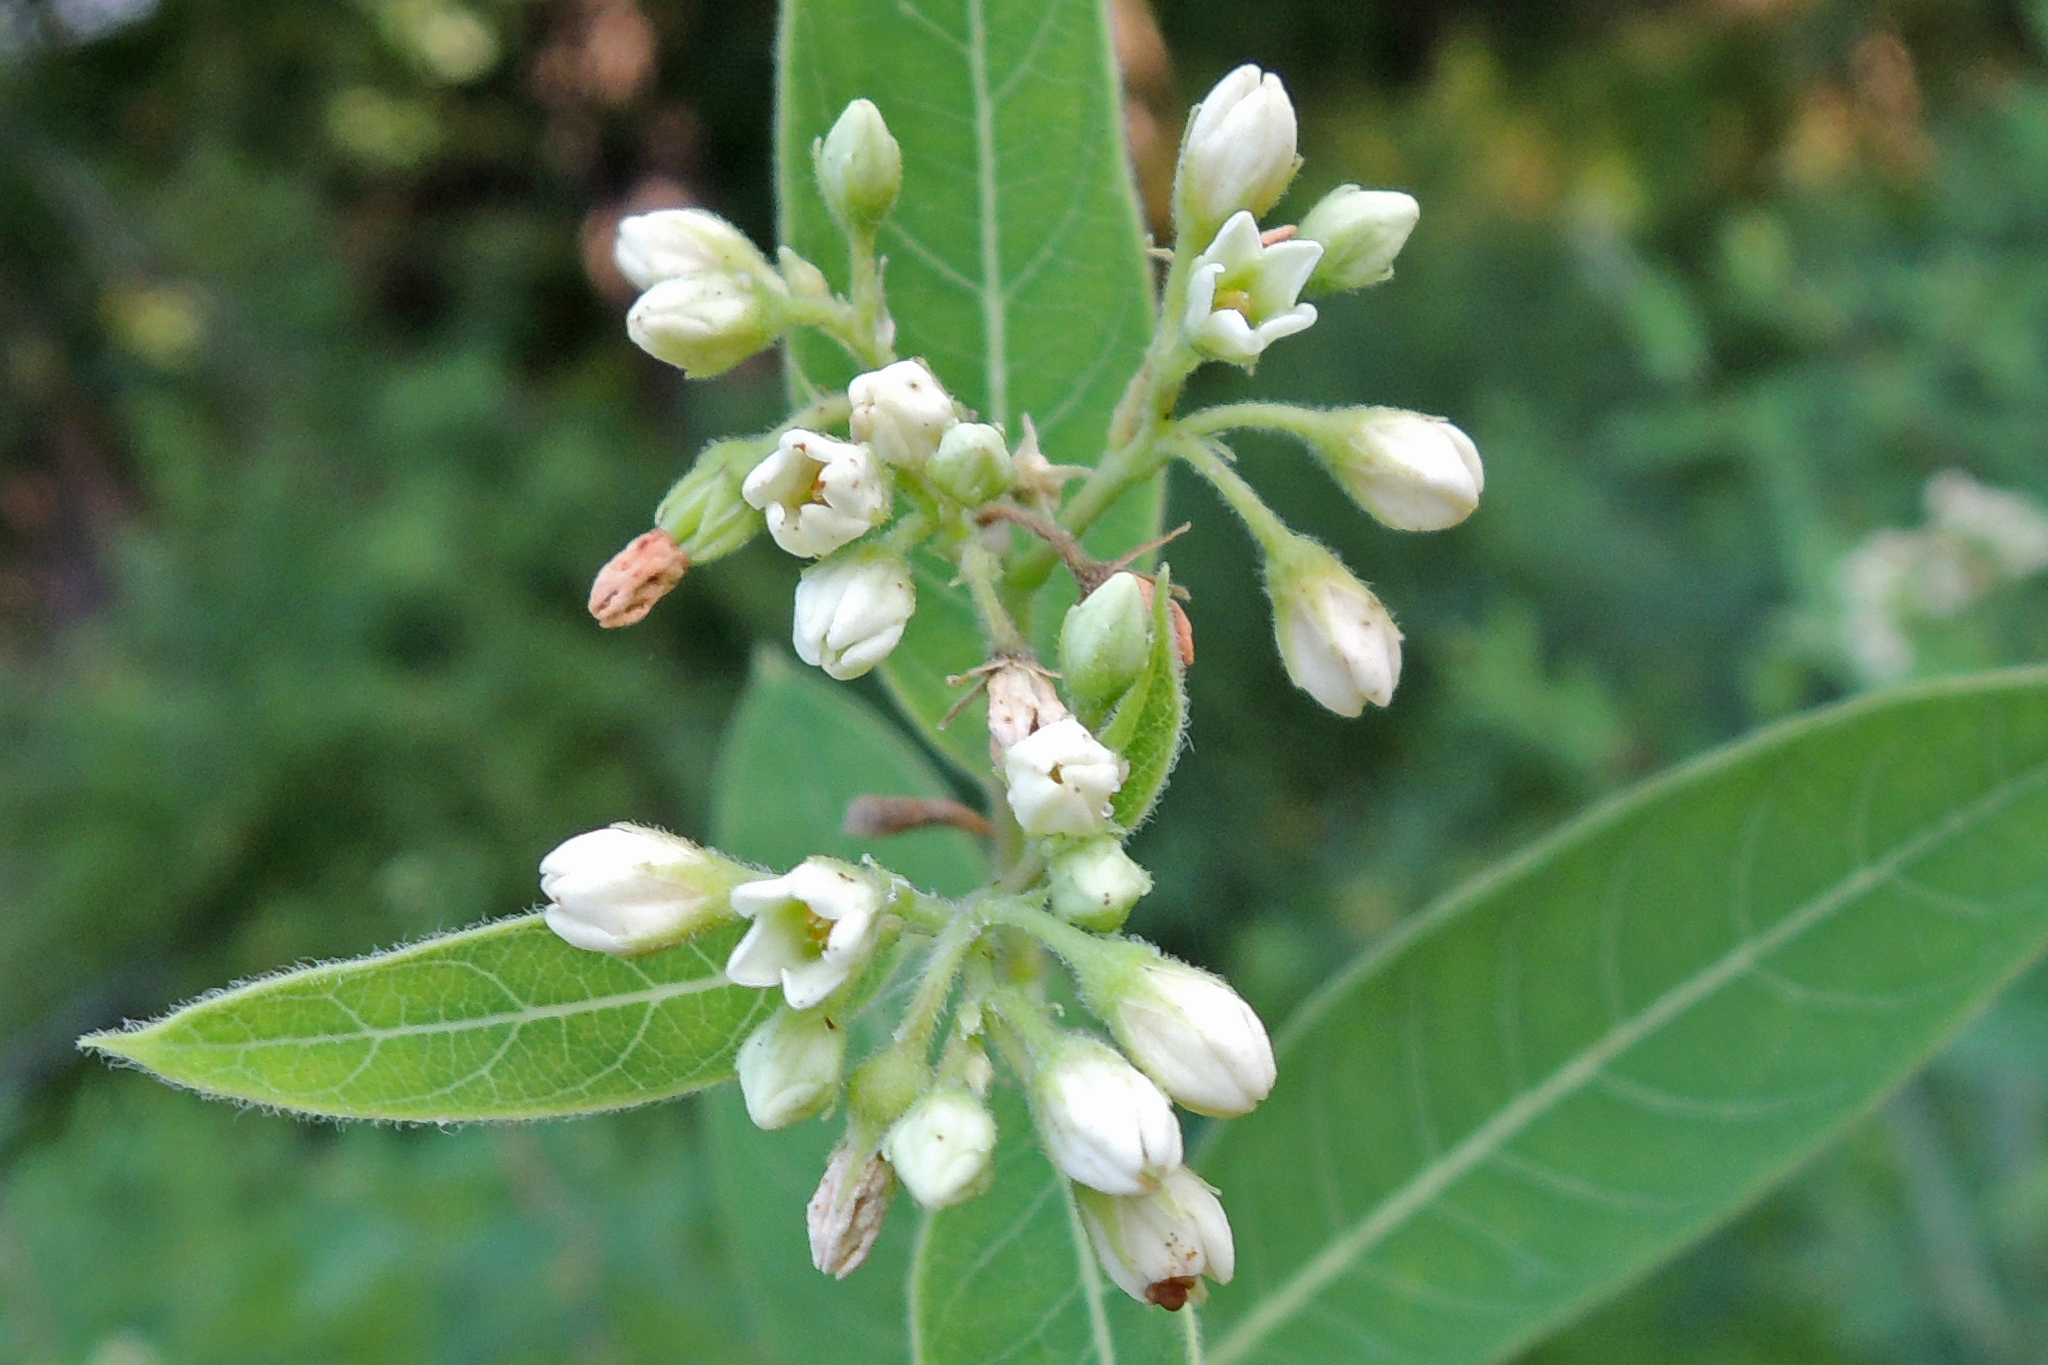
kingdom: Plantae
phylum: Tracheophyta
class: Magnoliopsida
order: Gentianales
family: Apocynaceae
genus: Apocynum
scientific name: Apocynum cannabinum
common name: Hemp dogbane
